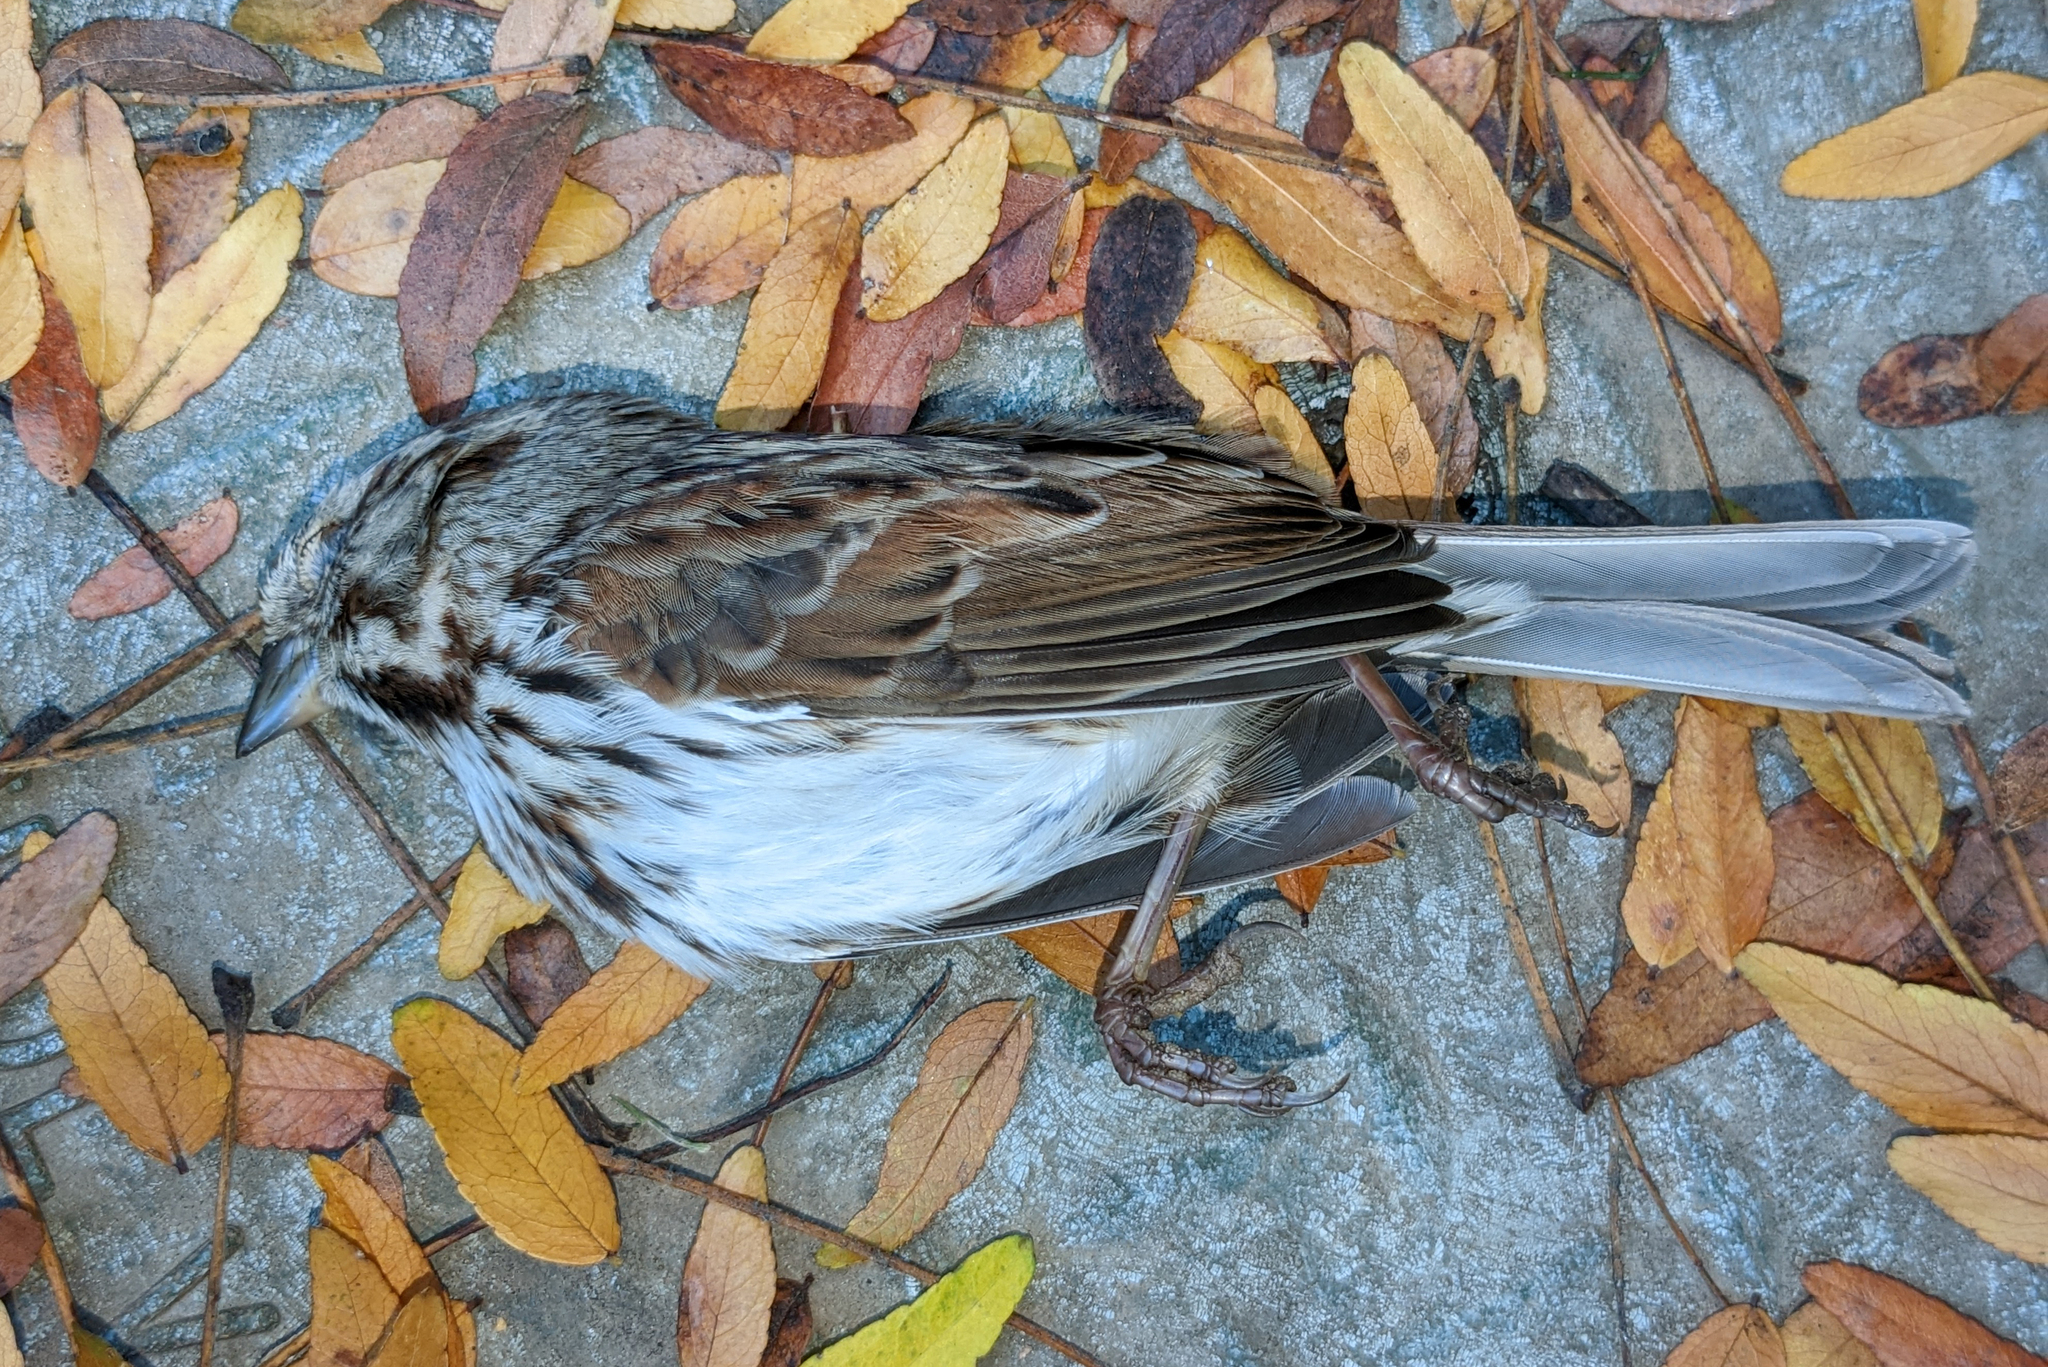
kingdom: Animalia
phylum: Chordata
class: Aves
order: Passeriformes
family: Passerellidae
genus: Melospiza
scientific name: Melospiza melodia
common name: Song sparrow
